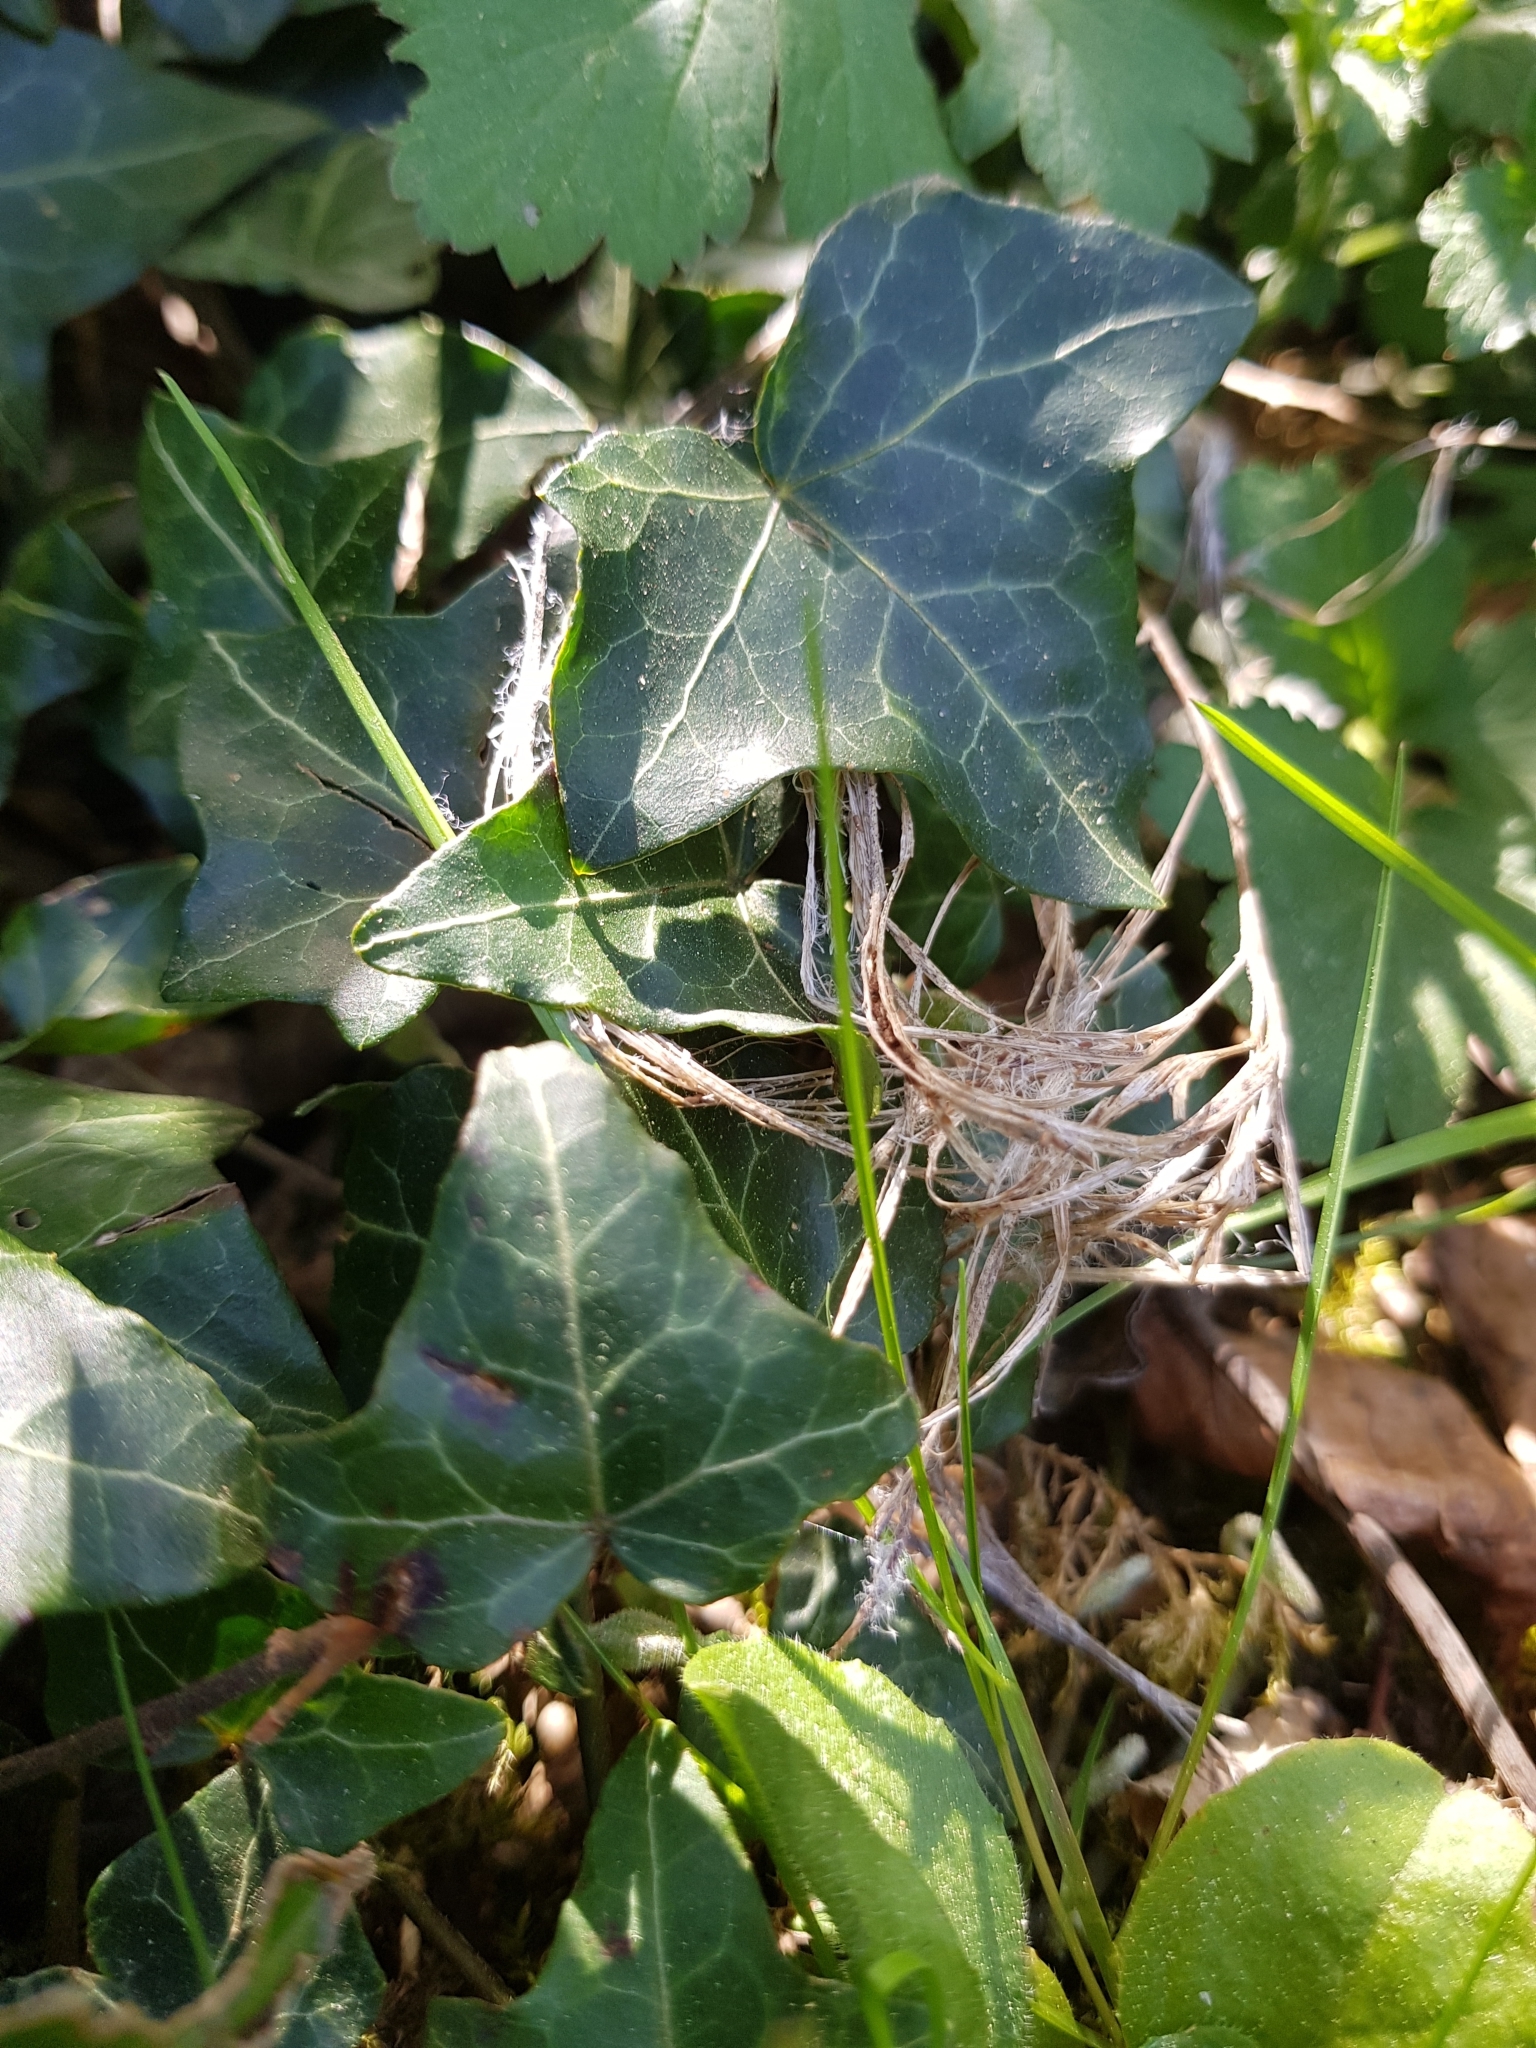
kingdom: Plantae
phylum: Tracheophyta
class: Magnoliopsida
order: Apiales
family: Araliaceae
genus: Hedera
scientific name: Hedera helix
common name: Ivy
